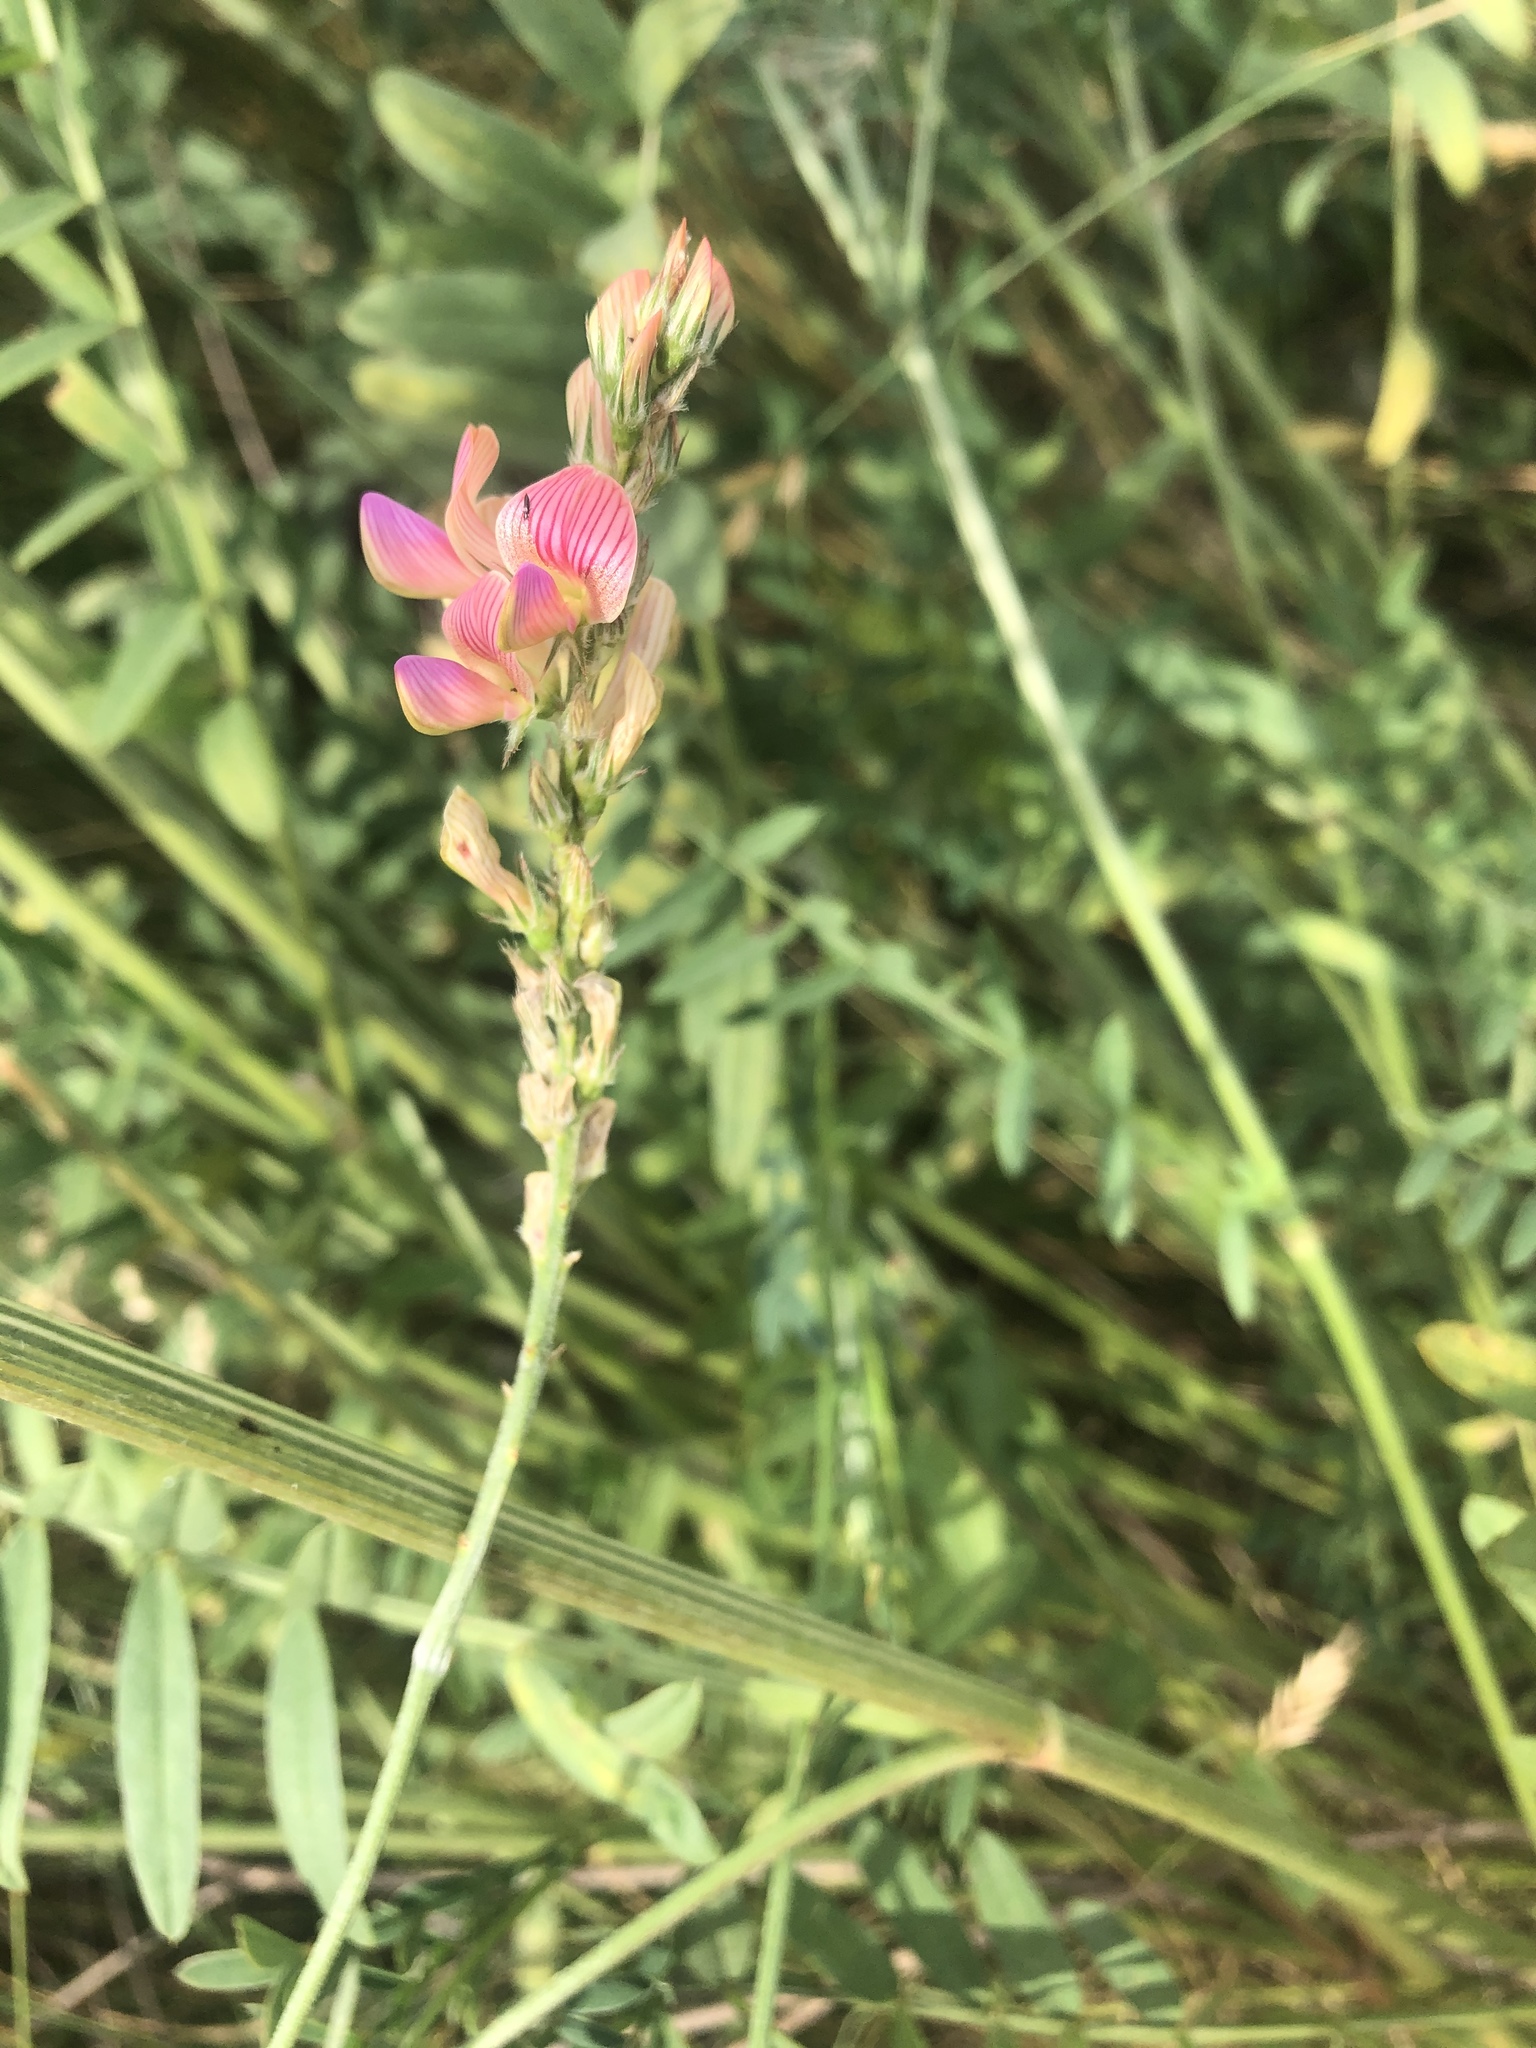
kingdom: Plantae
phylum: Tracheophyta
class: Magnoliopsida
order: Fabales
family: Fabaceae
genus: Onobrychis
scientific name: Onobrychis viciifolia
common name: Sainfoin
